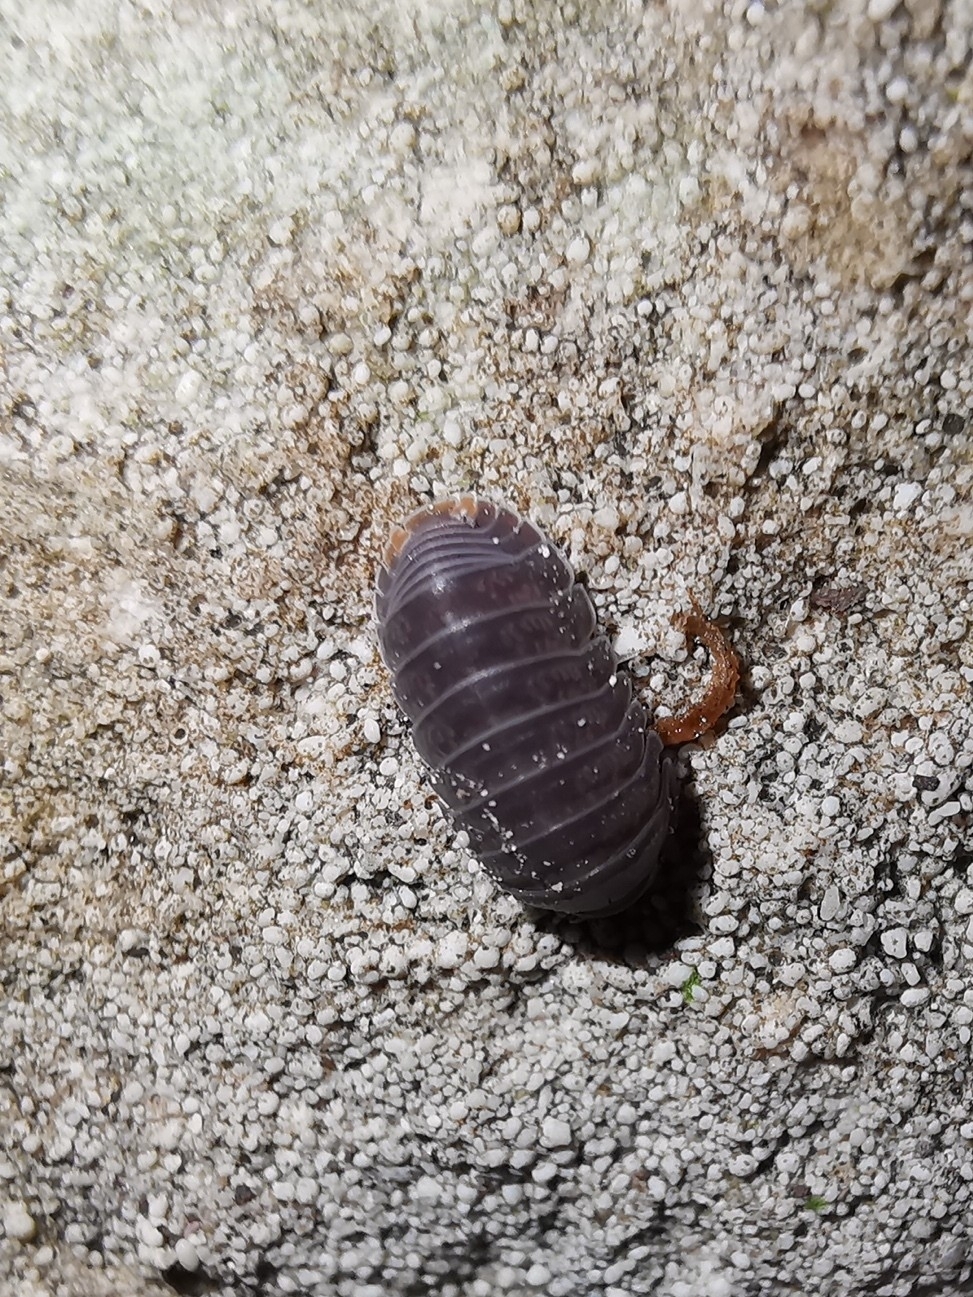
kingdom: Animalia
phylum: Arthropoda
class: Malacostraca
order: Isopoda
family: Armadillidae
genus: Cubaris
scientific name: Cubaris murina
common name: Pillbug
